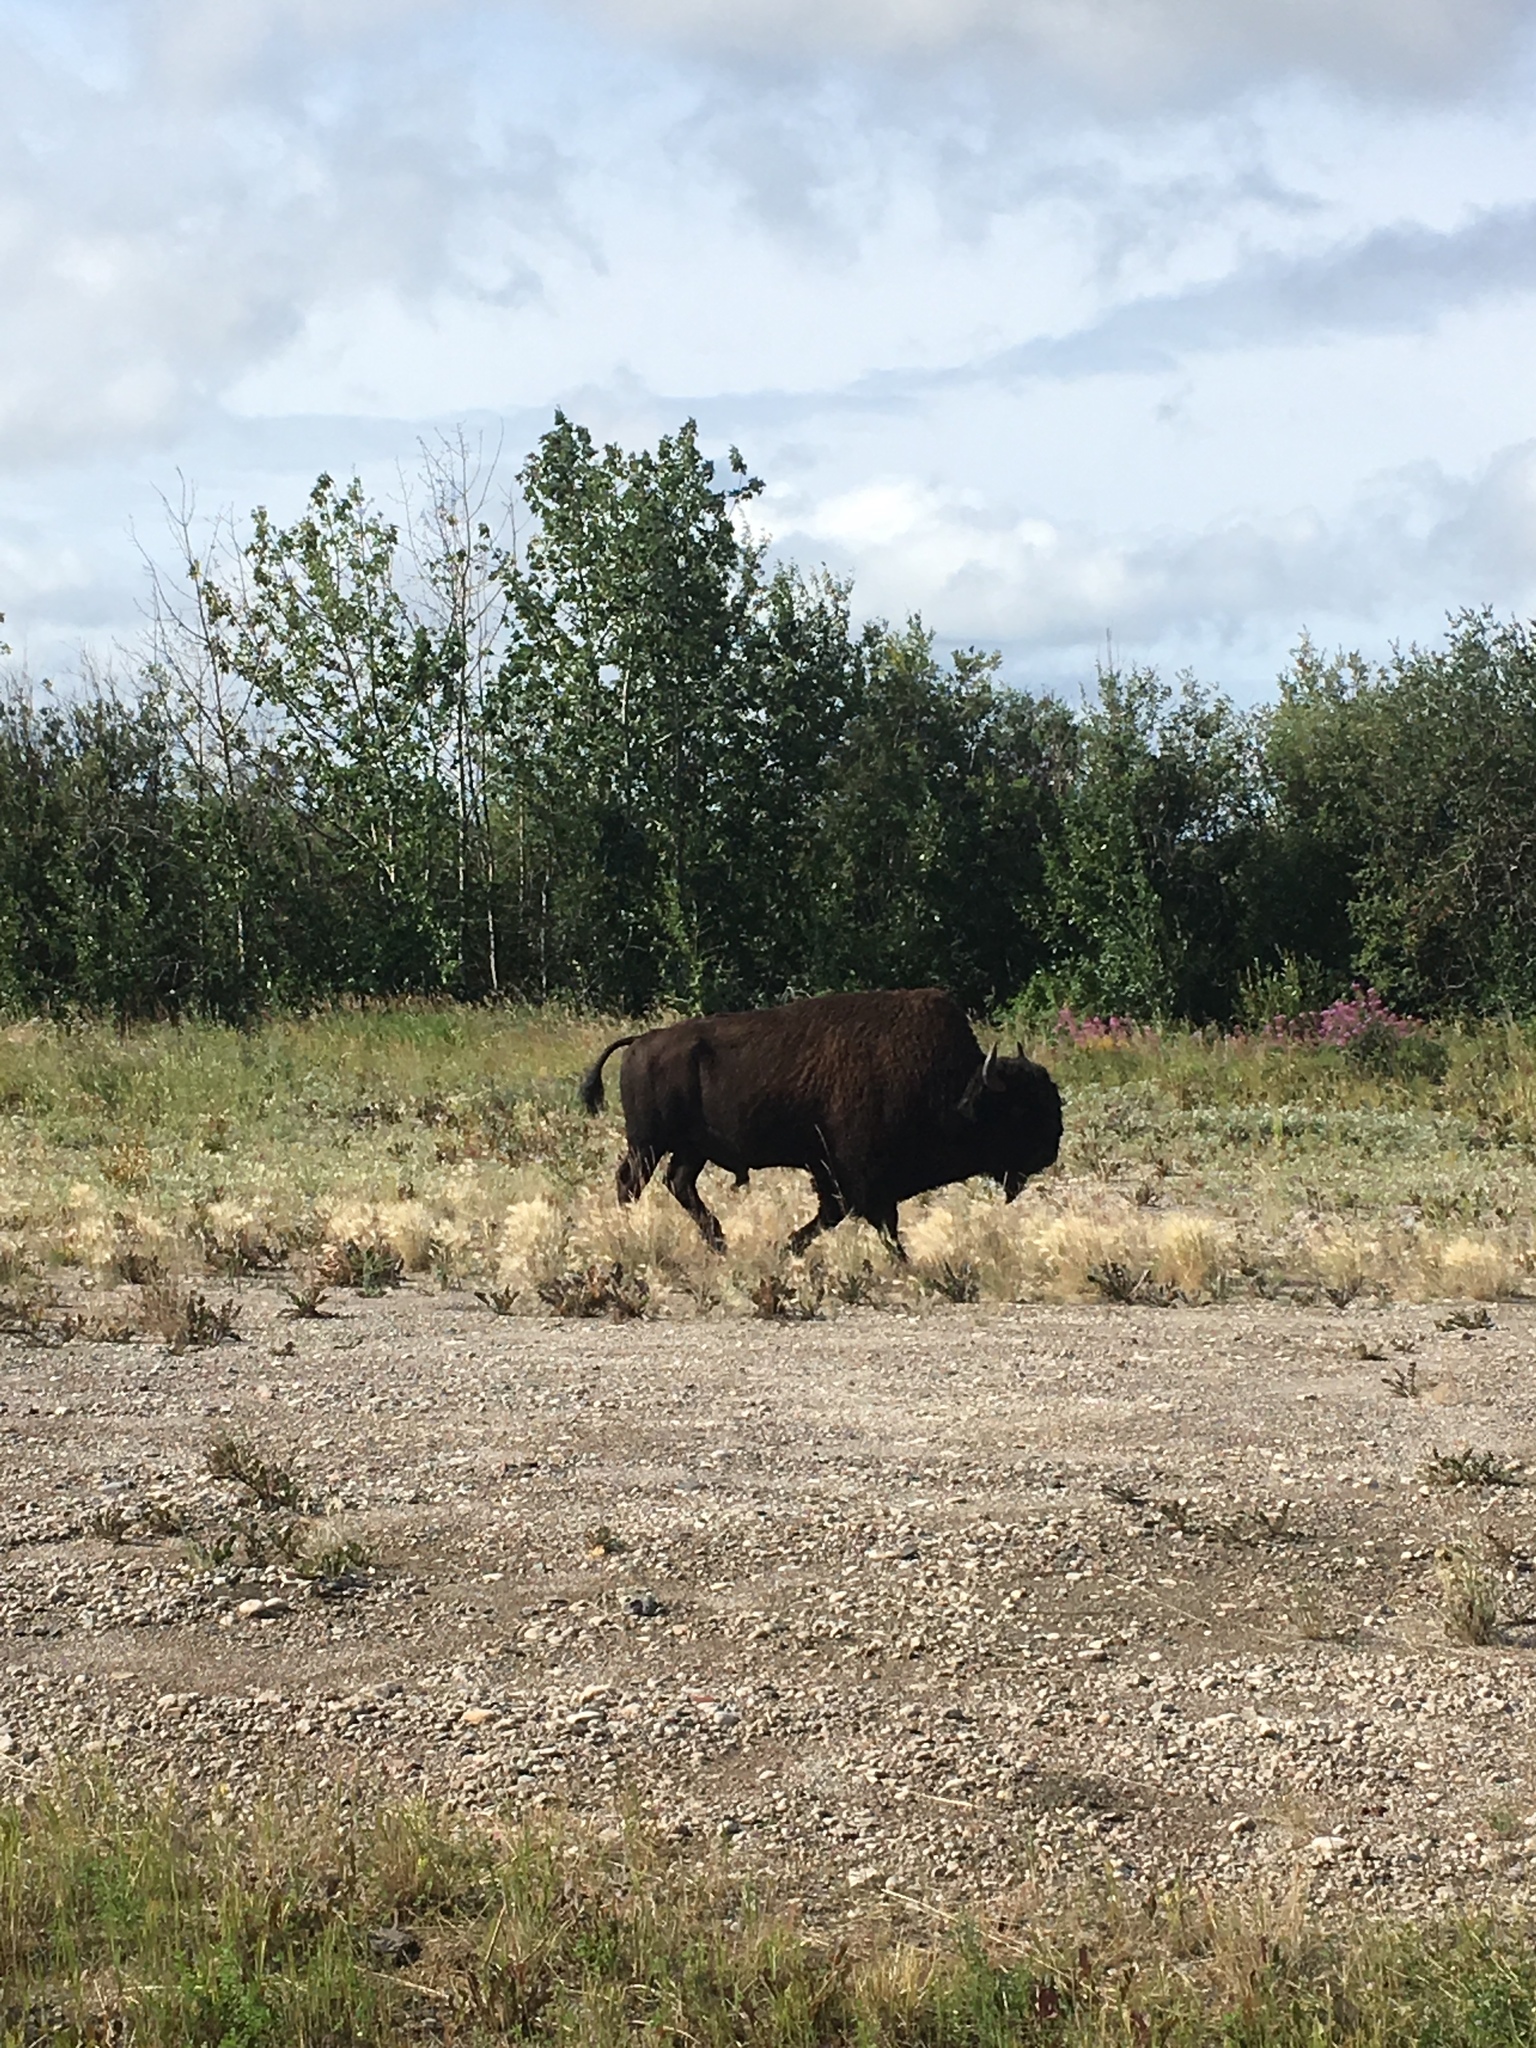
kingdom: Animalia
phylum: Chordata
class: Mammalia
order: Artiodactyla
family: Bovidae
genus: Bison
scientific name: Bison bison
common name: American bison
